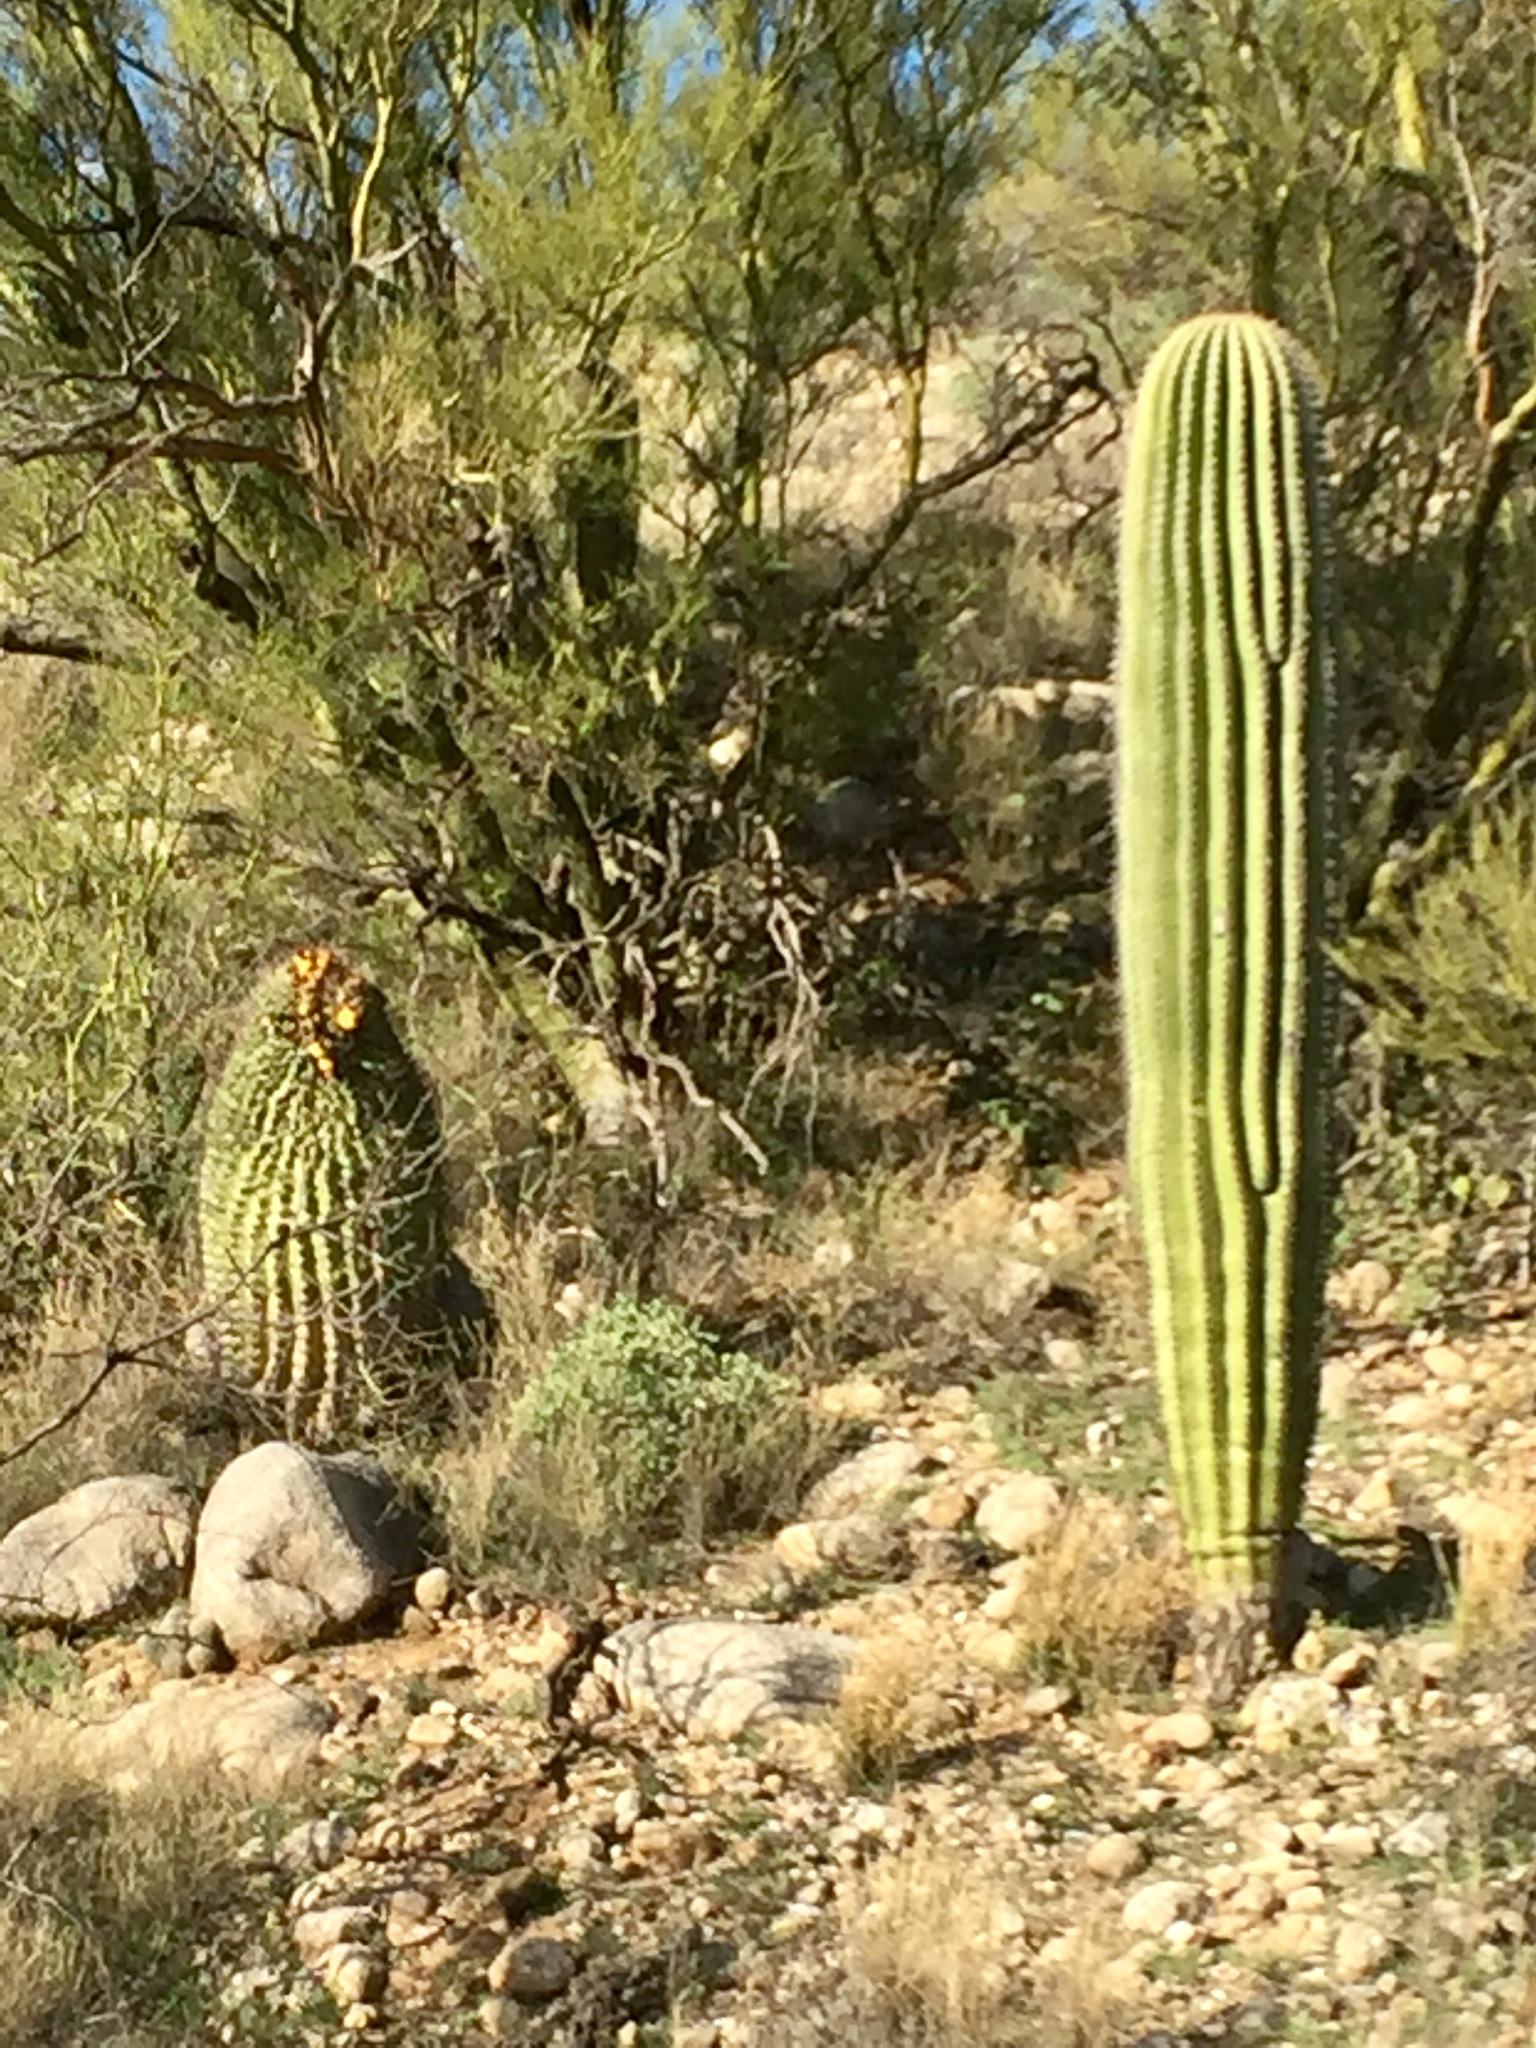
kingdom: Plantae
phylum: Tracheophyta
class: Magnoliopsida
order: Caryophyllales
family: Cactaceae
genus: Carnegiea
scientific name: Carnegiea gigantea
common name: Saguaro
